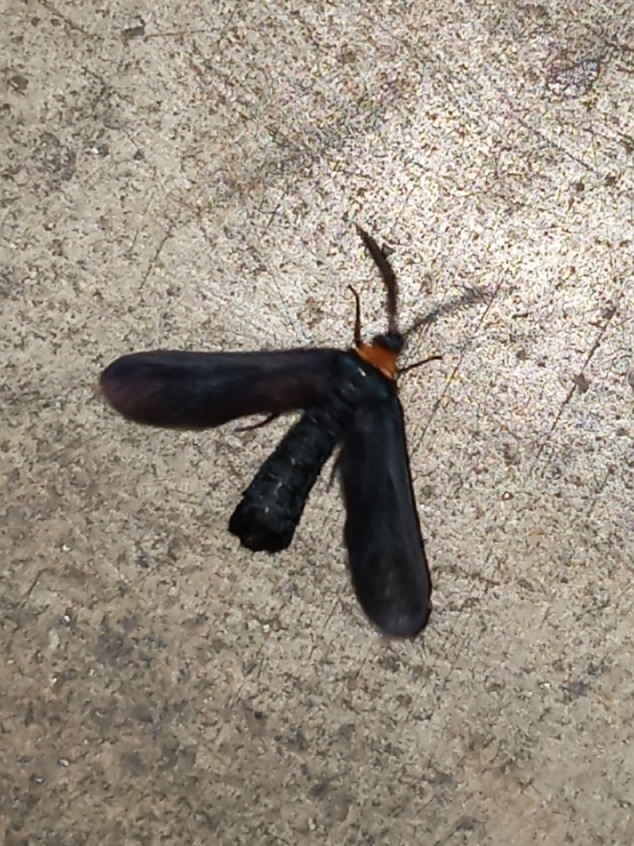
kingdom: Animalia
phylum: Arthropoda
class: Insecta
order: Lepidoptera
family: Zygaenidae
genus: Harrisina
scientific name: Harrisina americana
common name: Grapeleaf skeletonizer moth
